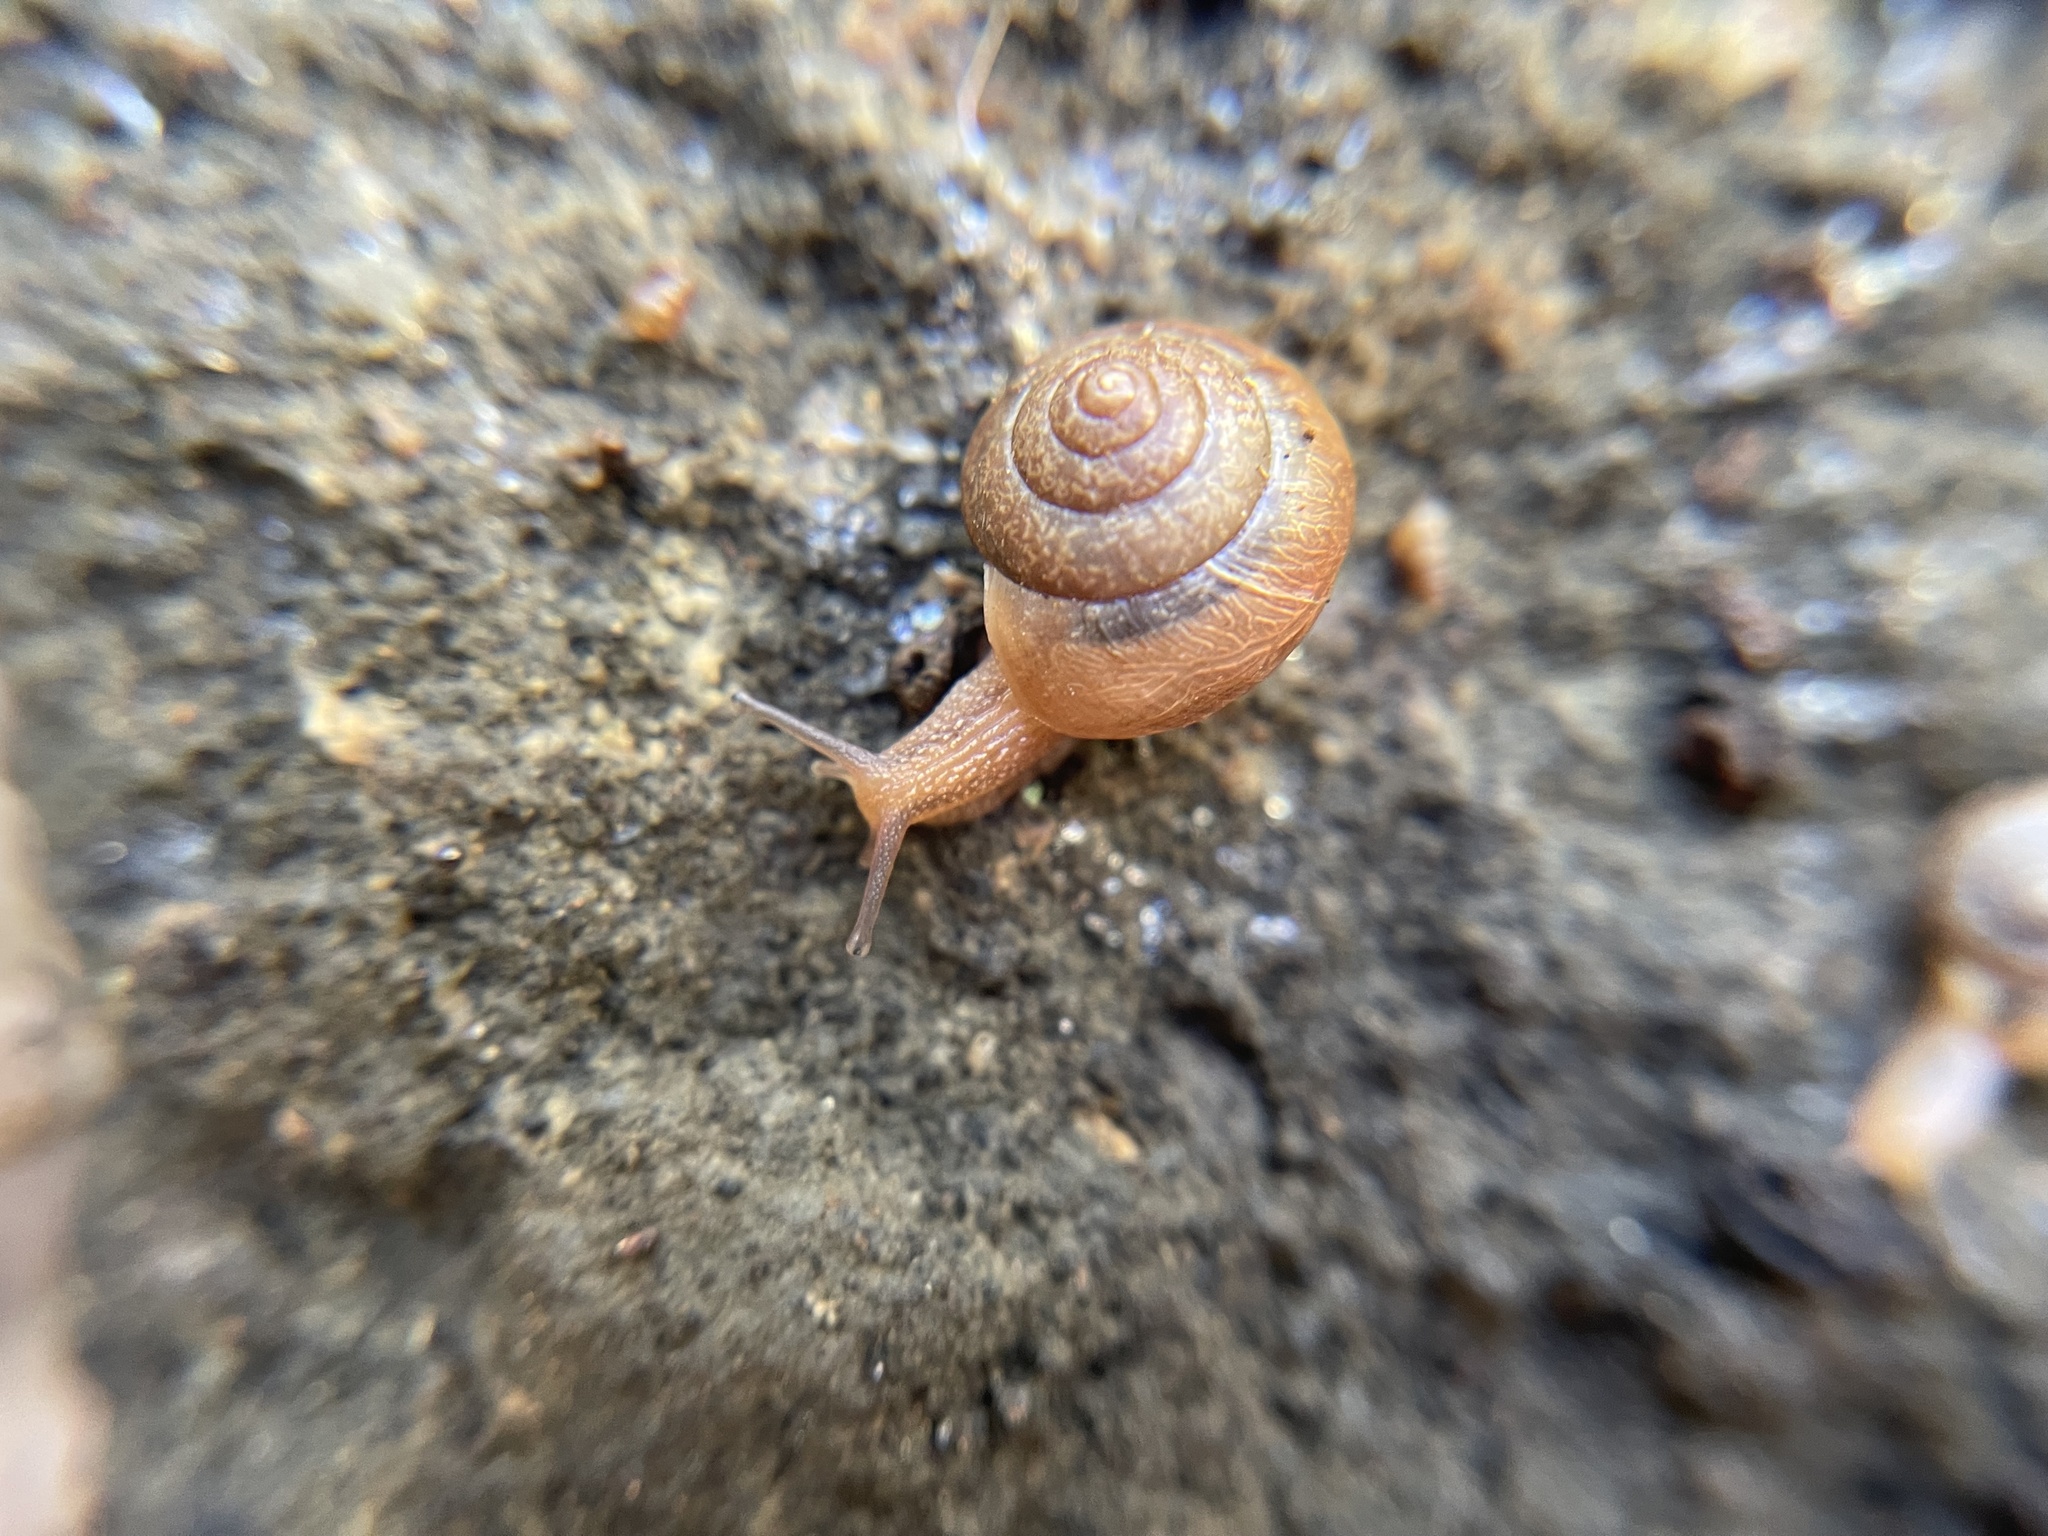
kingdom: Animalia
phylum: Mollusca
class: Gastropoda
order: Stylommatophora
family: Camaenidae
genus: Bradybaena
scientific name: Bradybaena similaris
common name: Asian trampsnail
